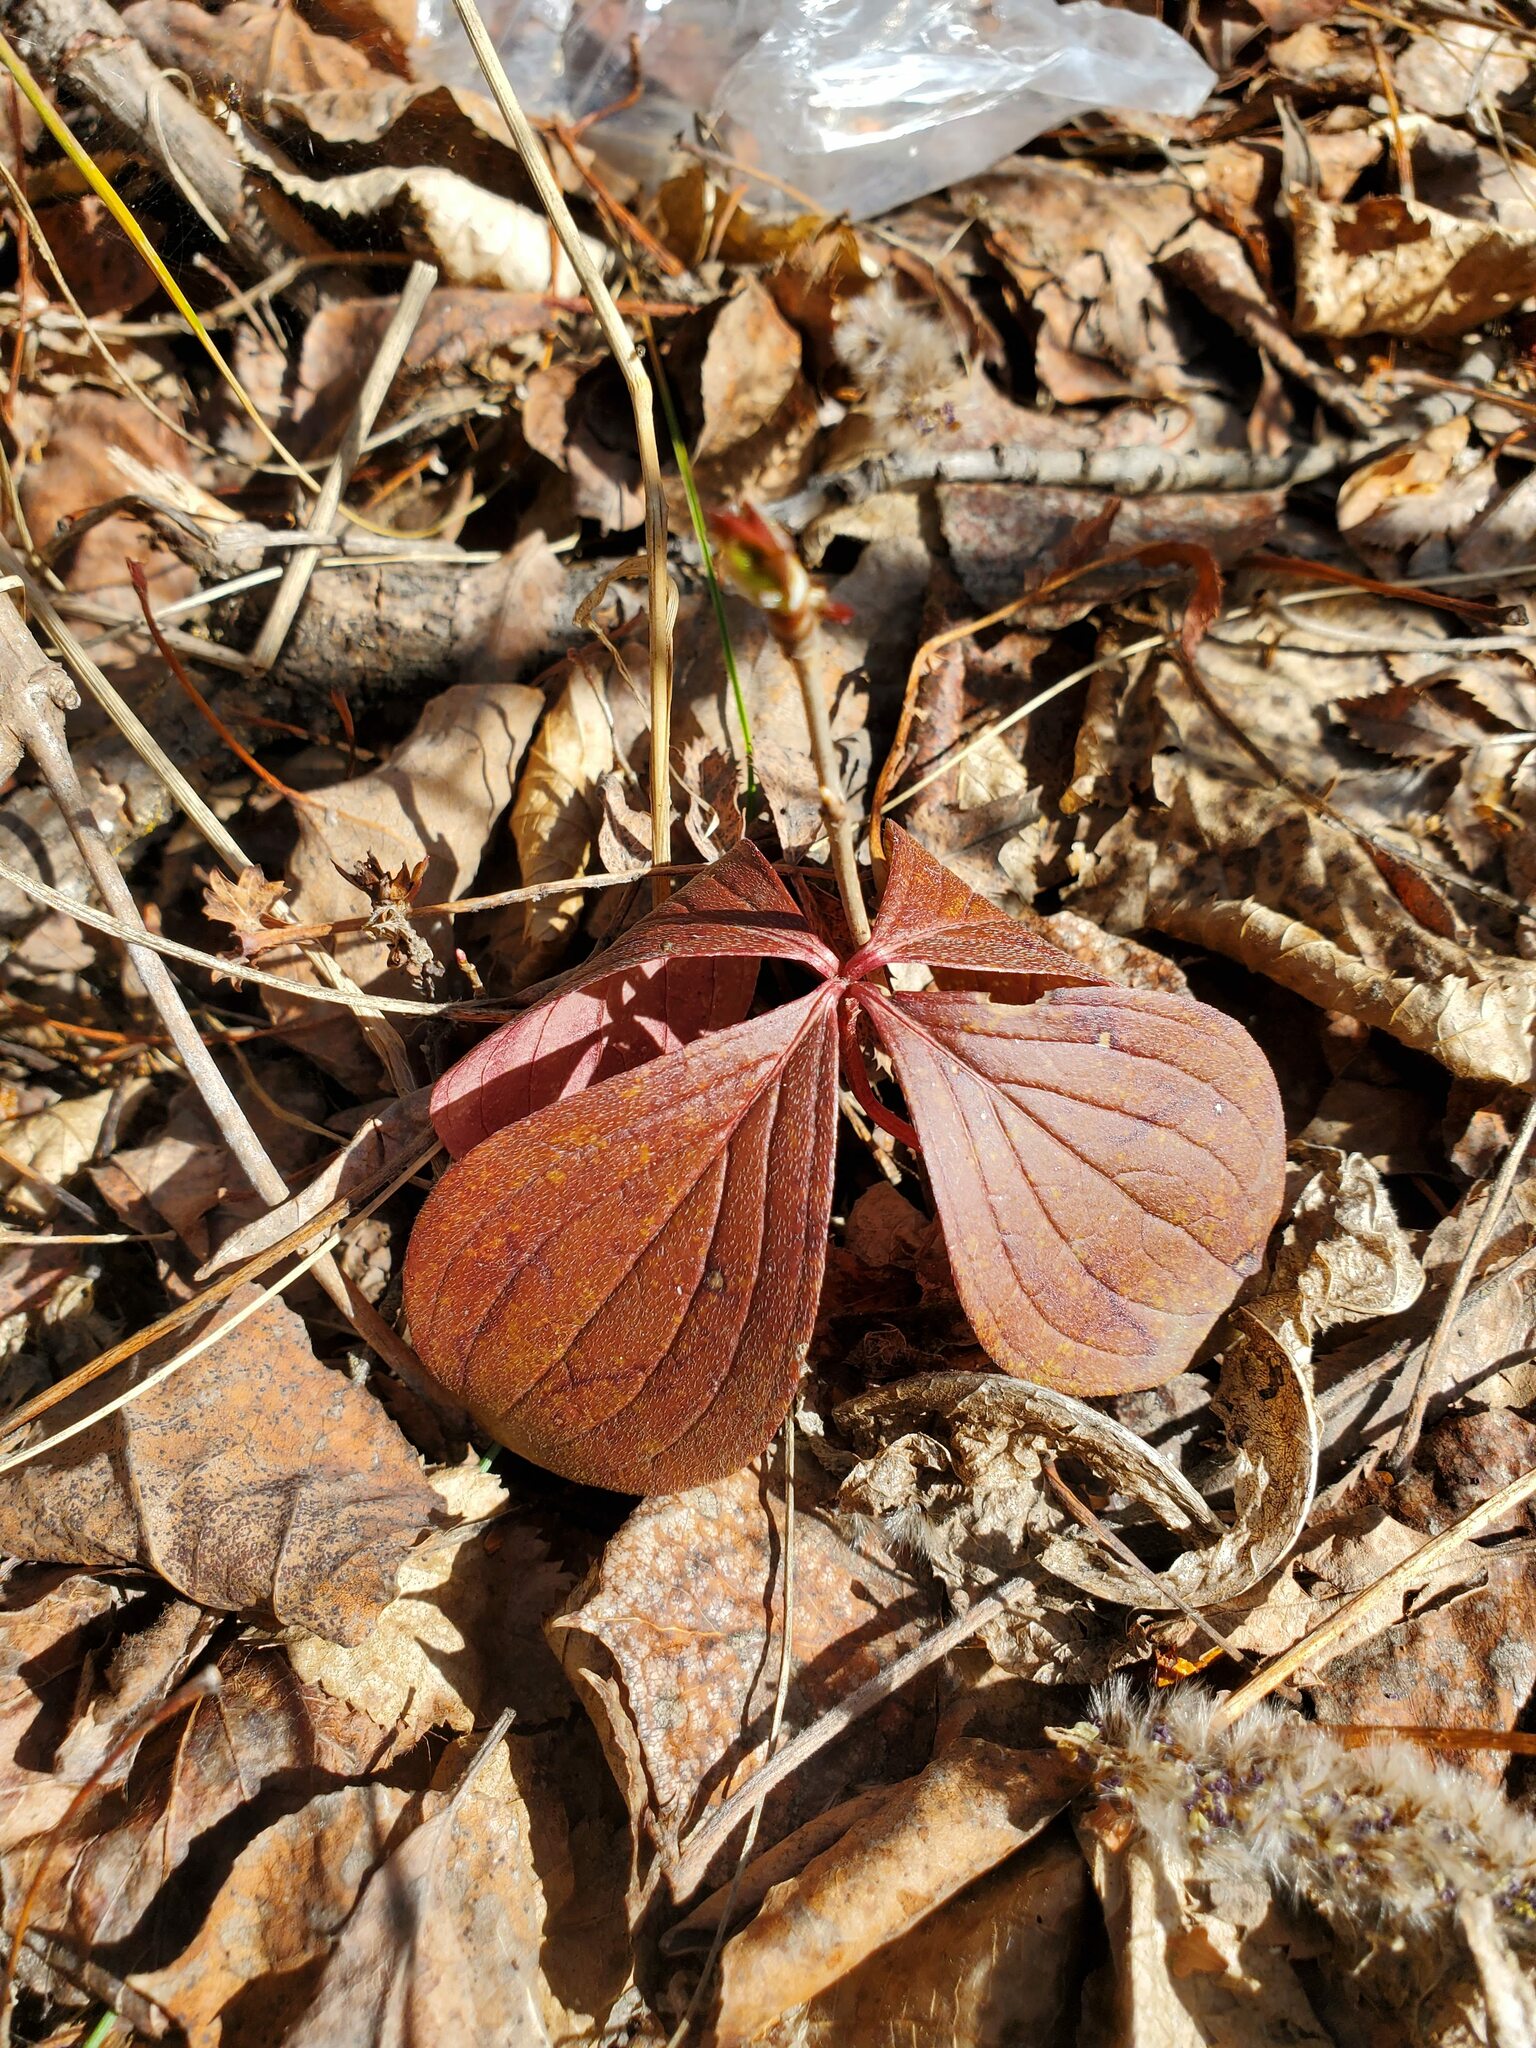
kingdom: Plantae
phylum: Tracheophyta
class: Magnoliopsida
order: Cornales
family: Cornaceae
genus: Cornus
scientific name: Cornus canadensis
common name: Creeping dogwood
